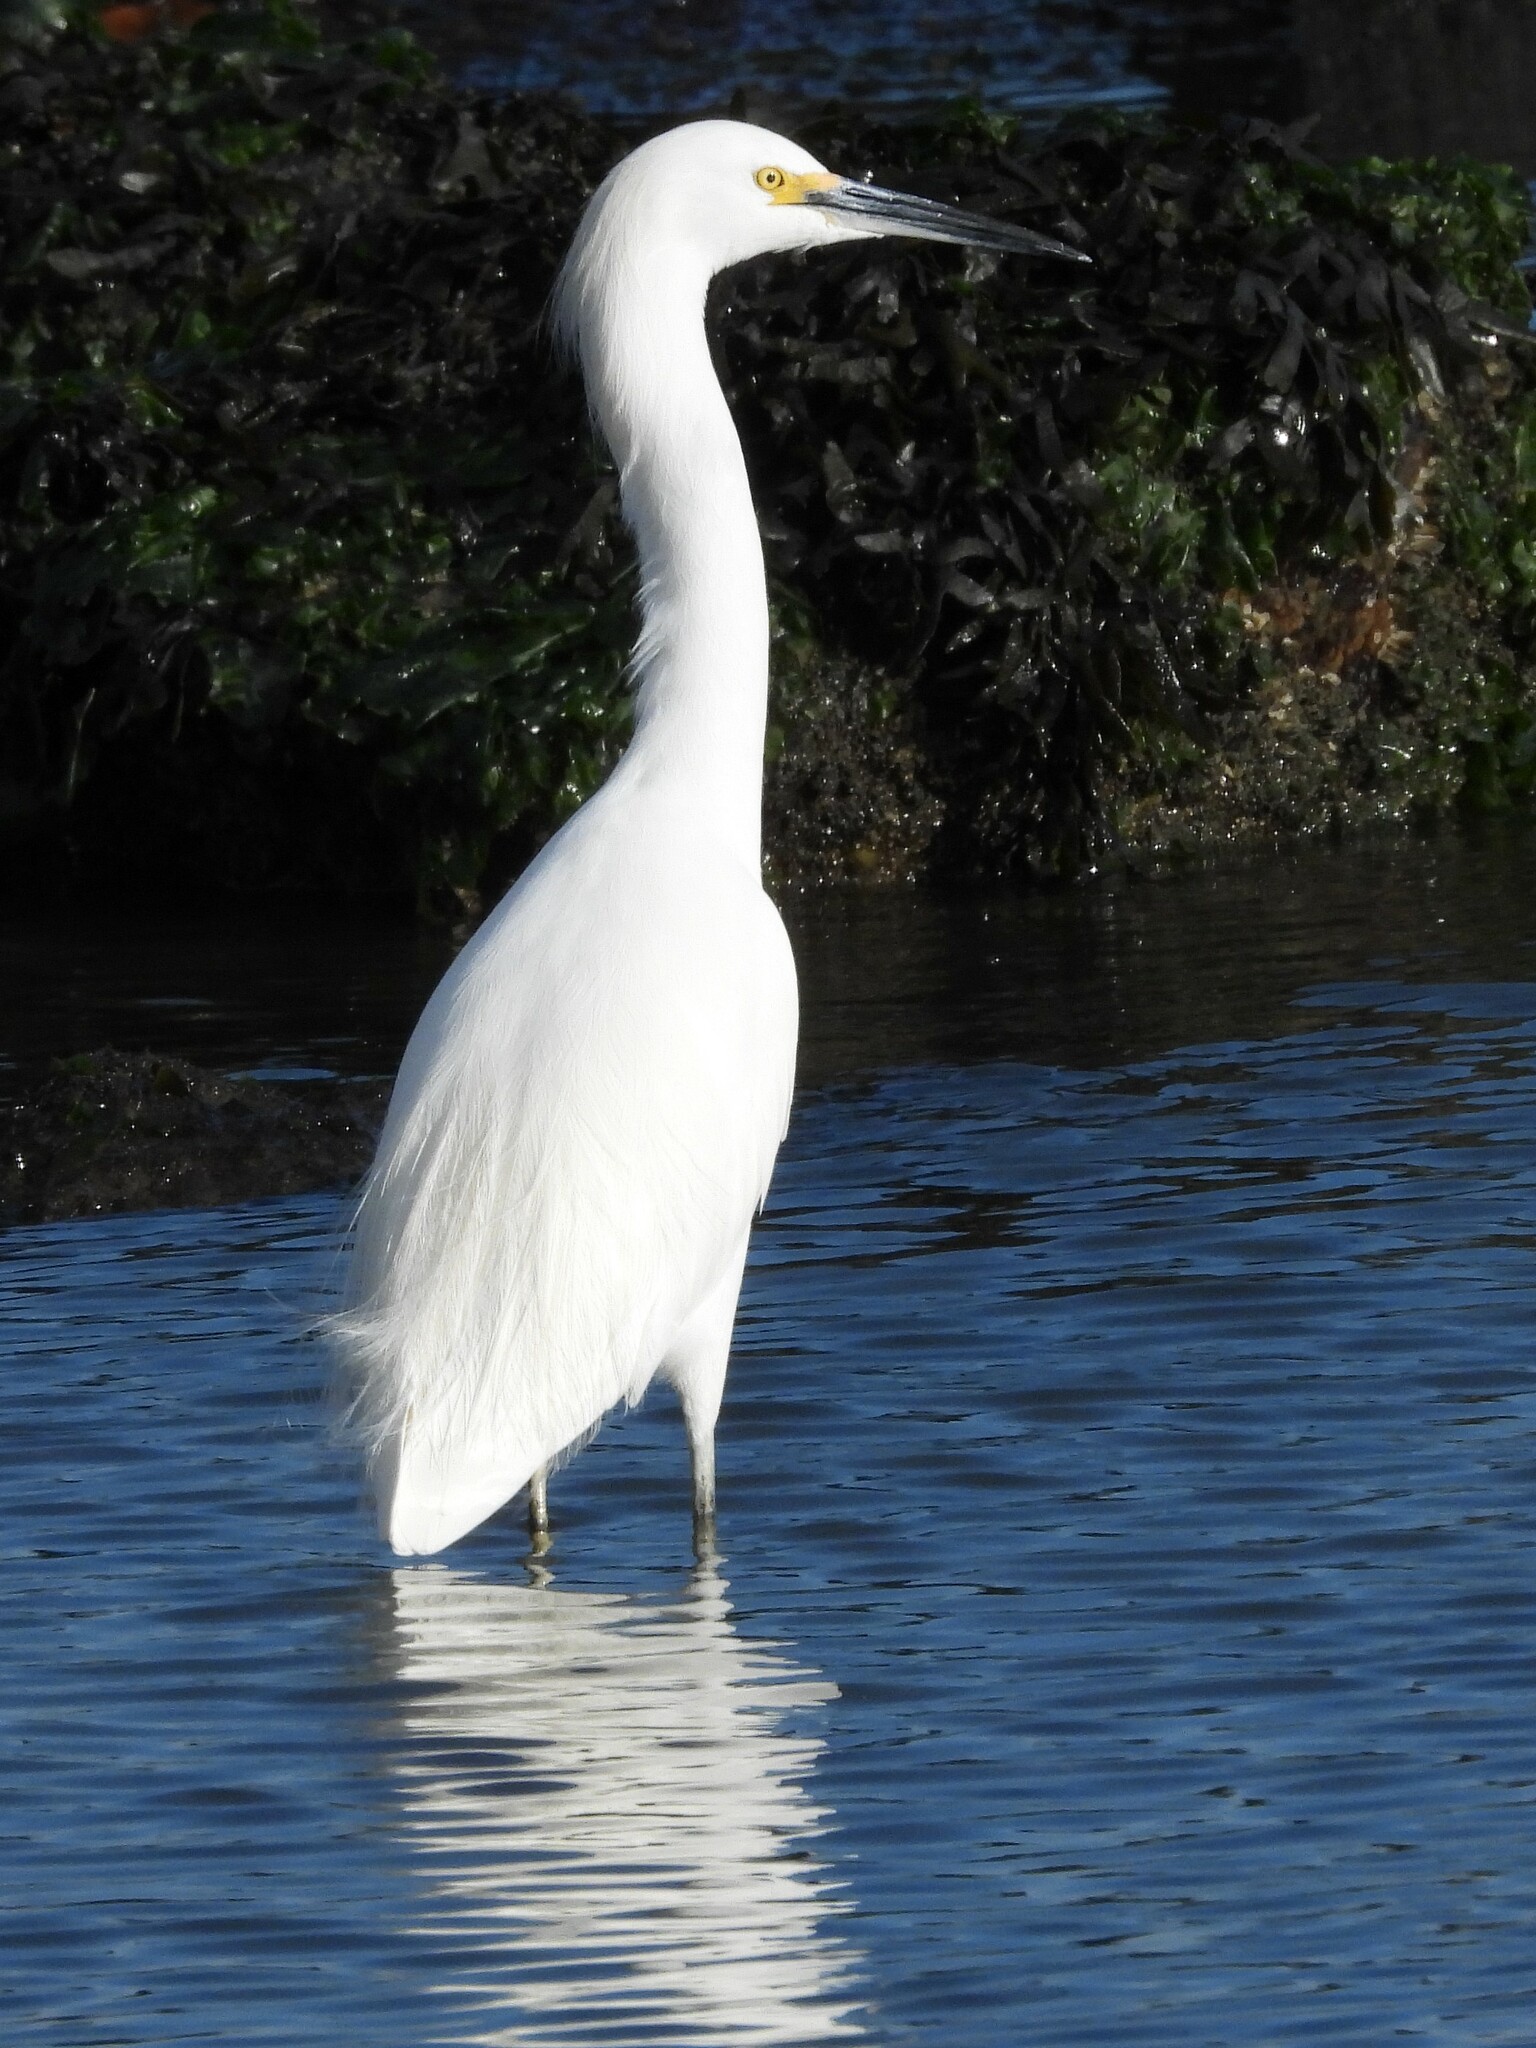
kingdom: Animalia
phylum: Chordata
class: Aves
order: Pelecaniformes
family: Ardeidae
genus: Egretta
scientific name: Egretta thula
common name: Snowy egret
